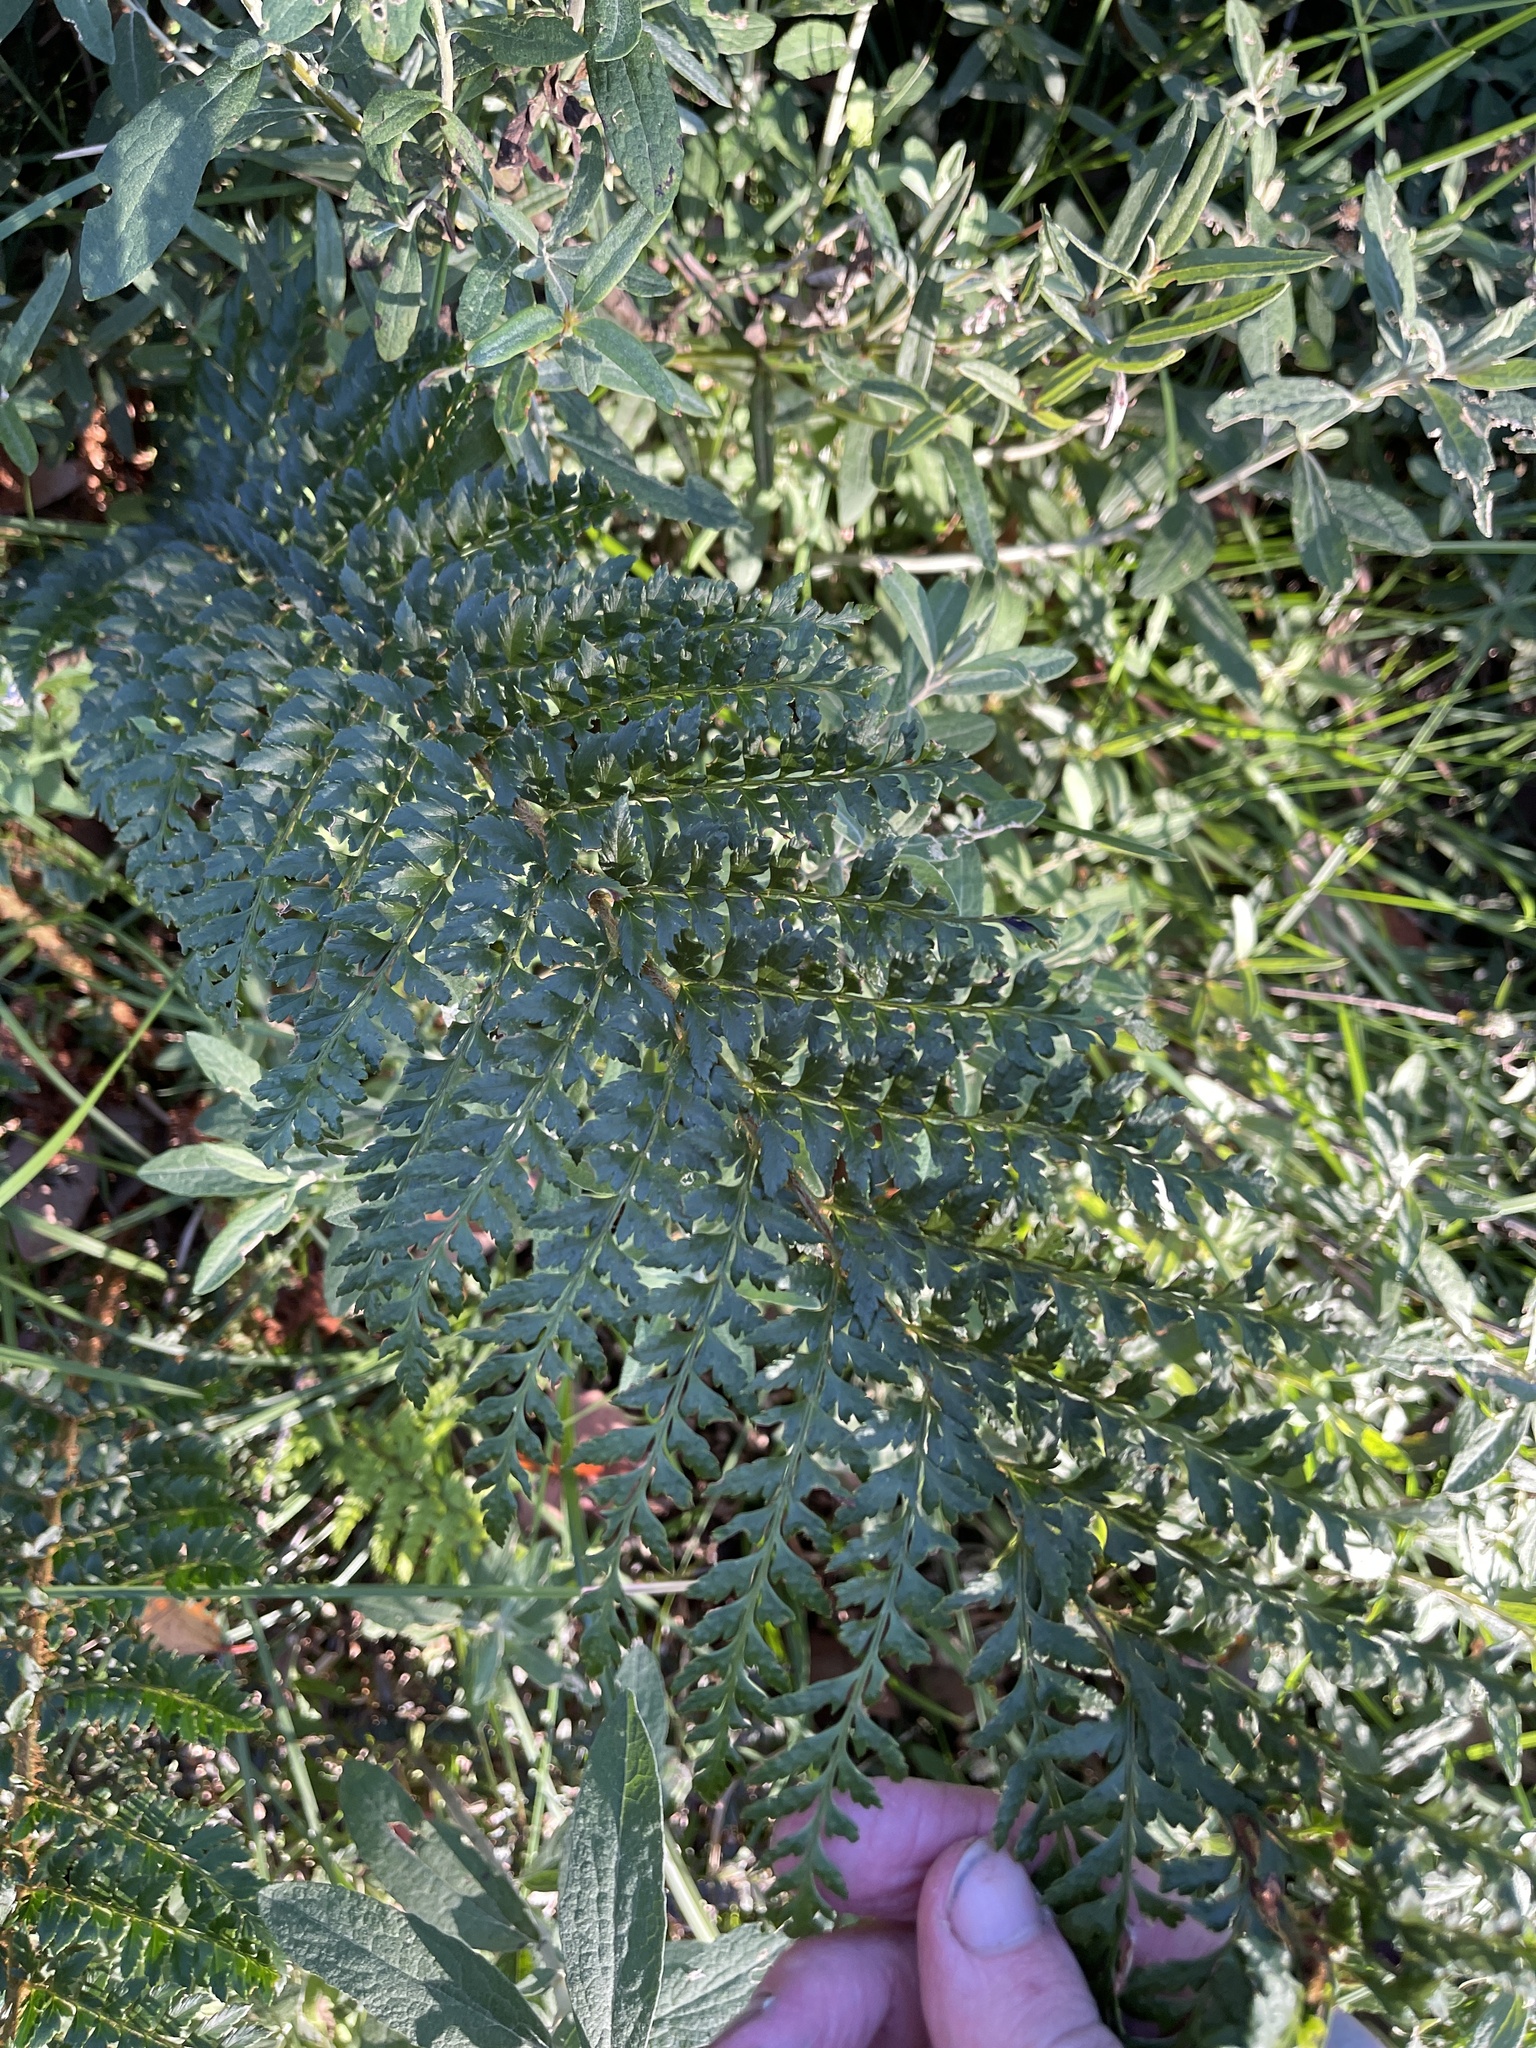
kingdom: Plantae
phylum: Tracheophyta
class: Polypodiopsida
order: Polypodiales
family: Dryopteridaceae
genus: Polystichum
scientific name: Polystichum proliferum
